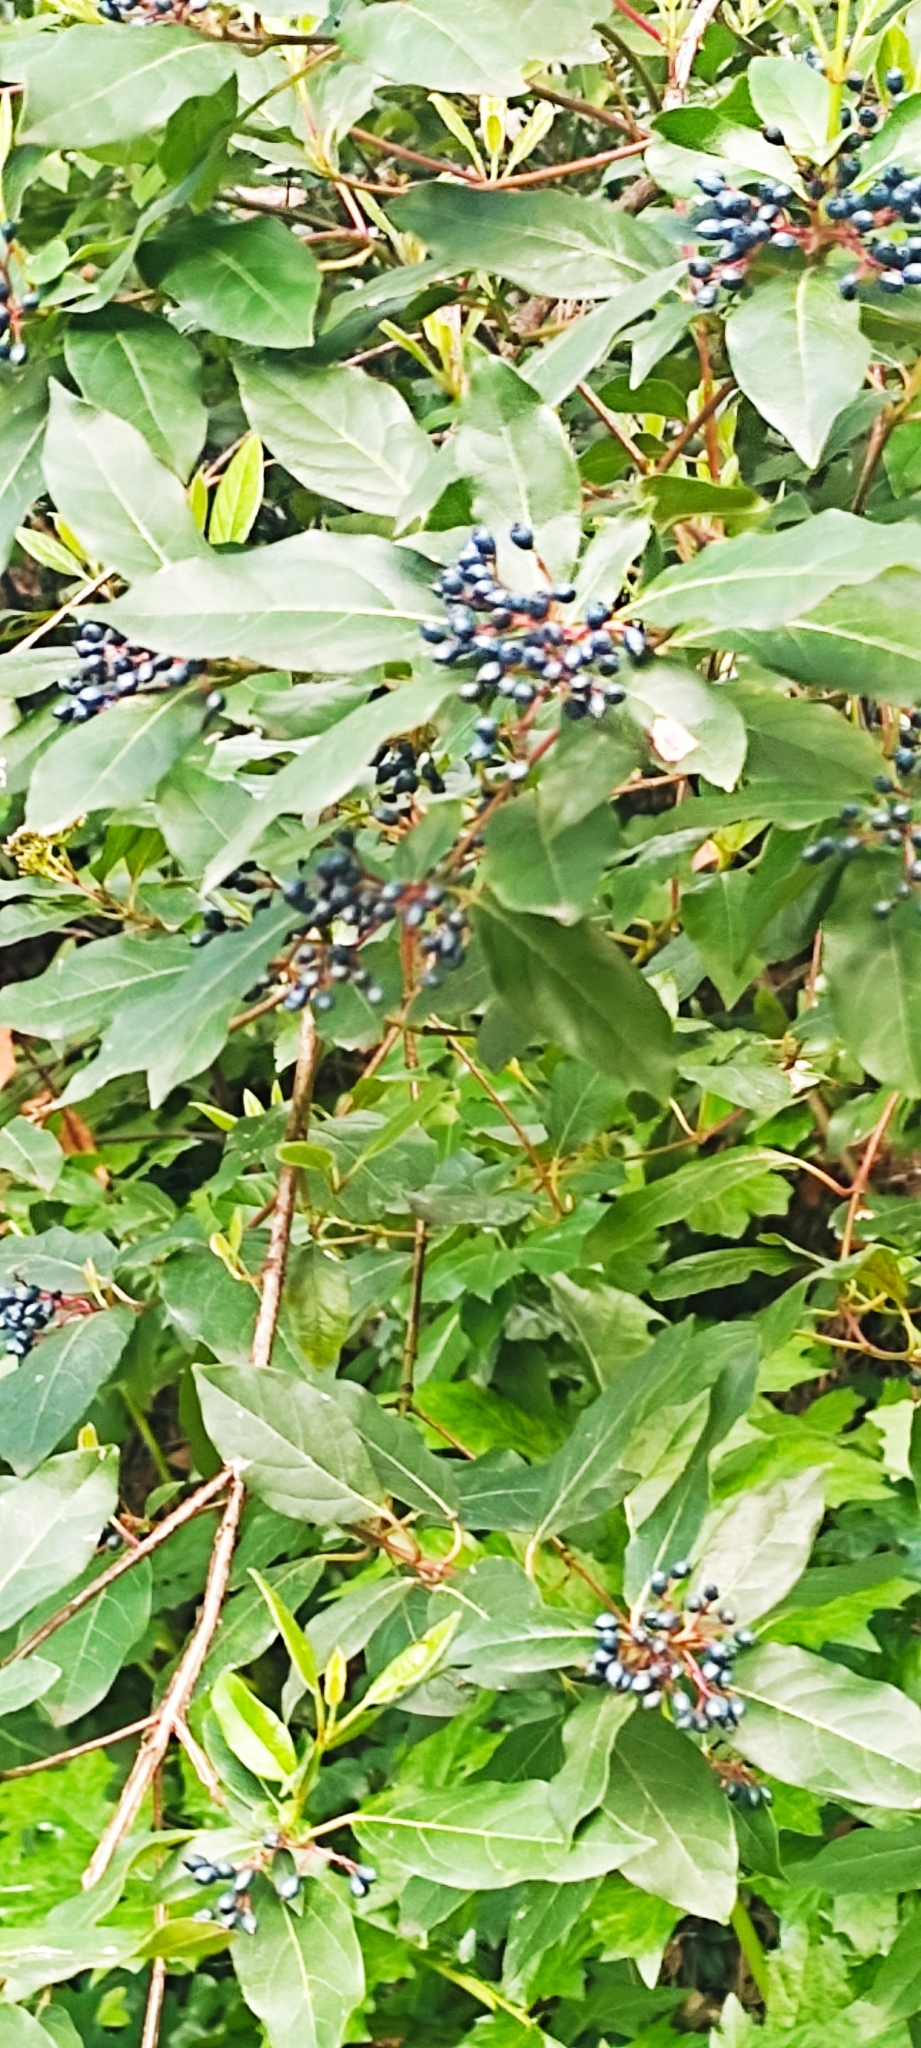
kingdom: Plantae
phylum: Tracheophyta
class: Magnoliopsida
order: Dipsacales
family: Viburnaceae
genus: Viburnum
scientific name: Viburnum tinus
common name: Laurustinus
